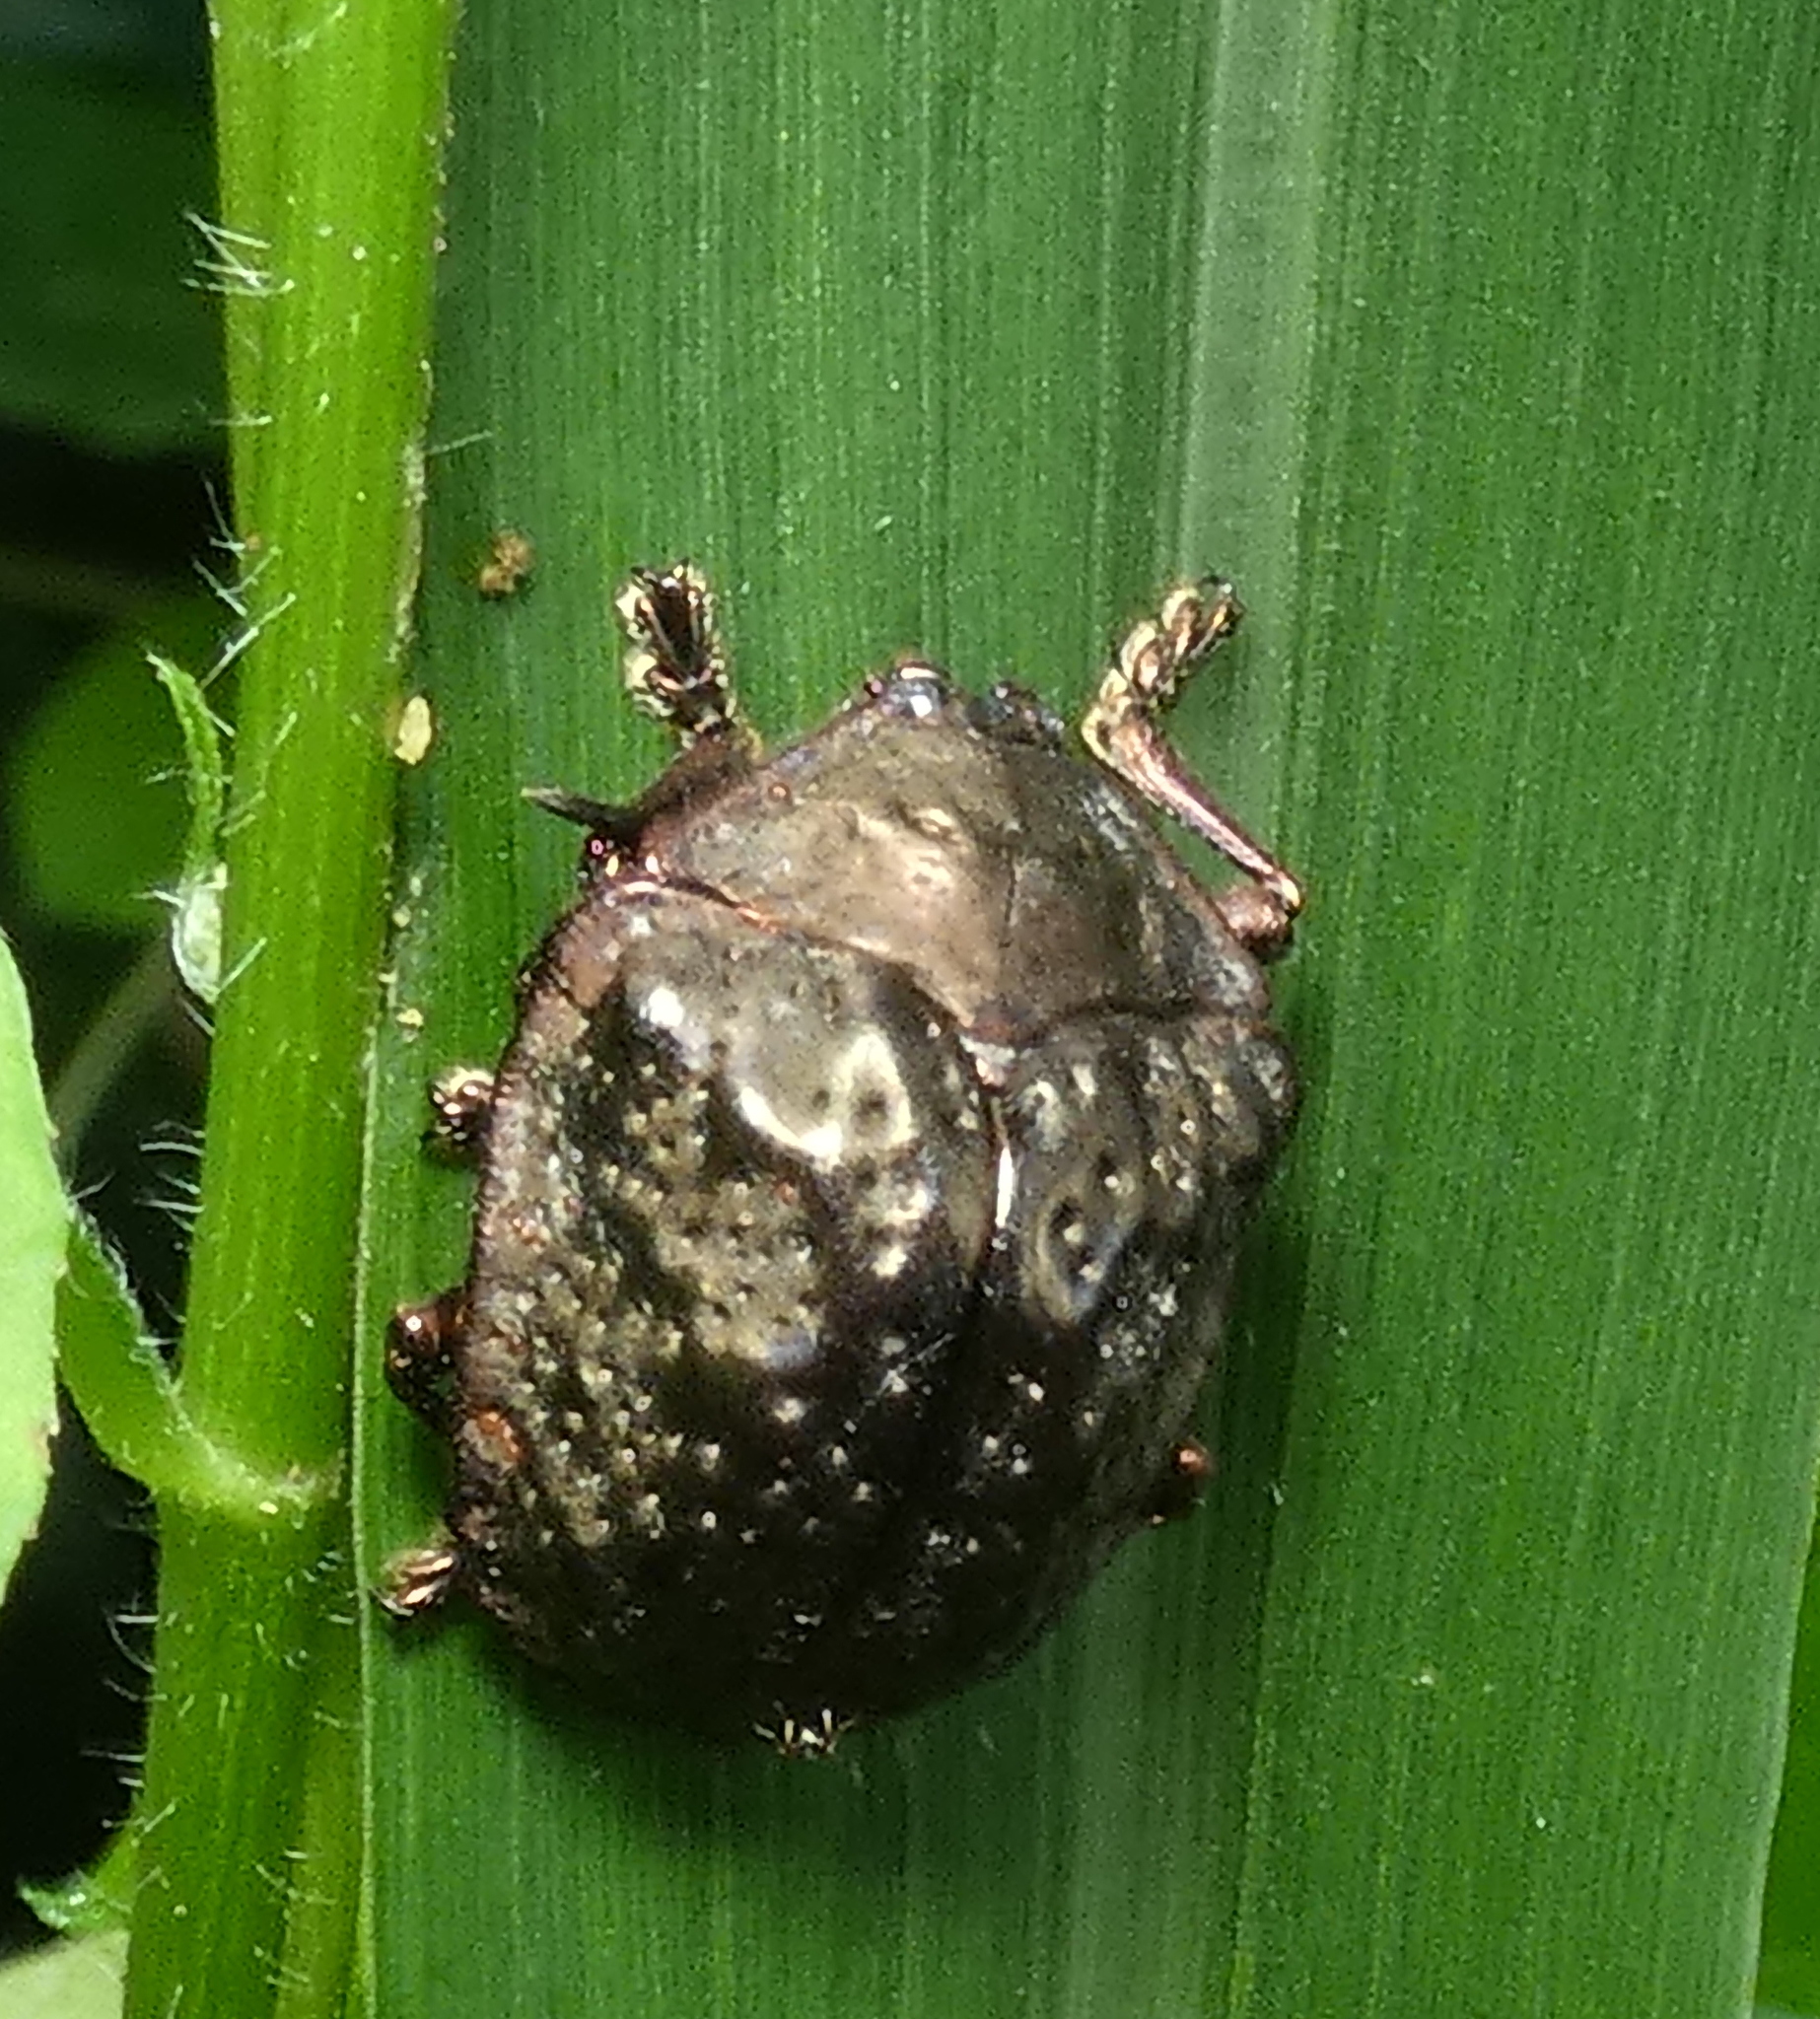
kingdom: Animalia
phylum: Arthropoda
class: Insecta
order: Coleoptera
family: Chrysomelidae
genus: Polychalca
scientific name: Polychalca aerea
